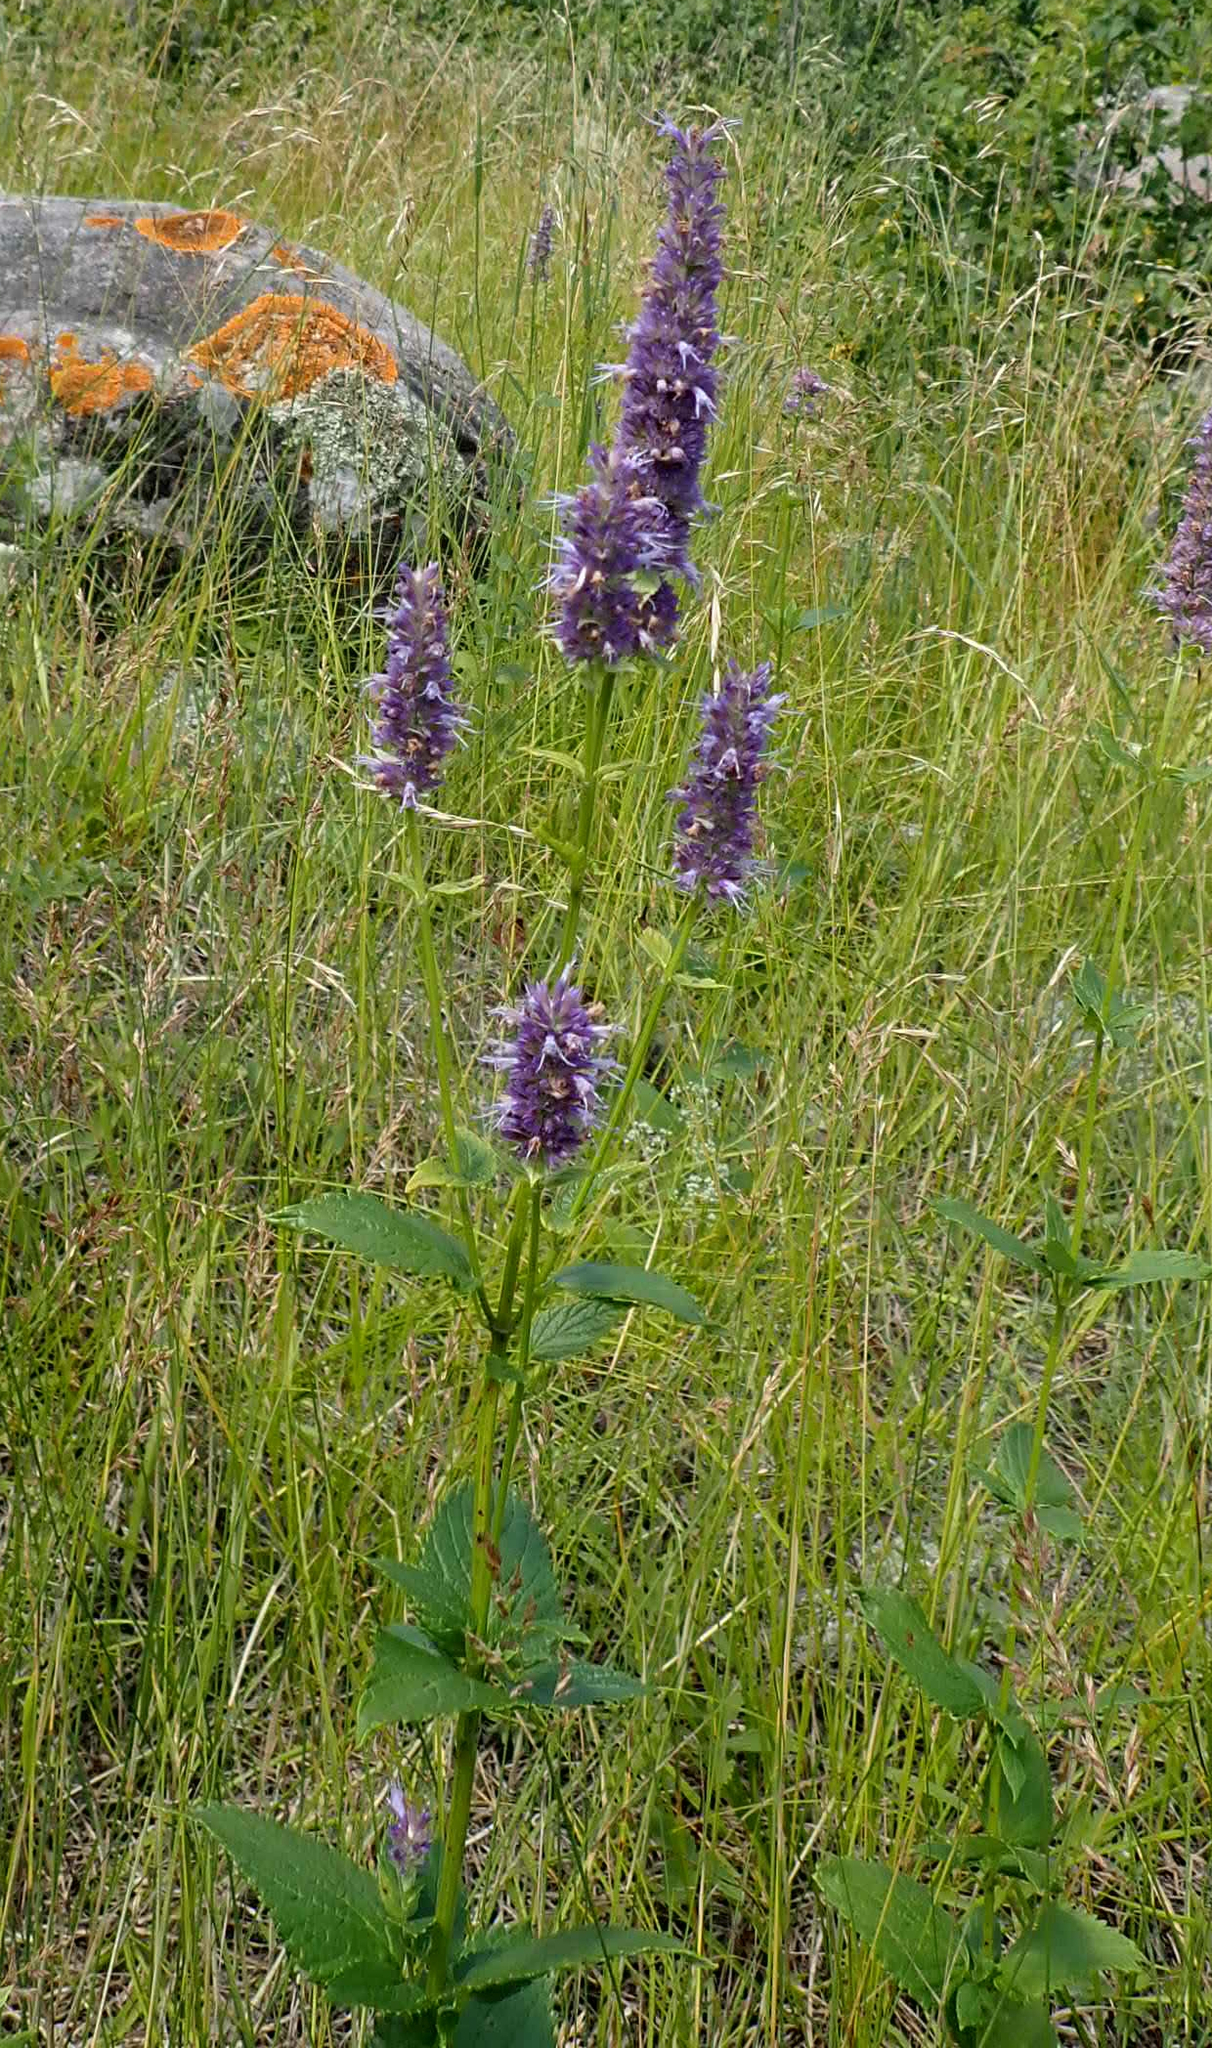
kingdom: Plantae
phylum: Tracheophyta
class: Magnoliopsida
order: Lamiales
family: Lamiaceae
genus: Agastache
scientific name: Agastache foeniculum
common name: Anise hyssop
